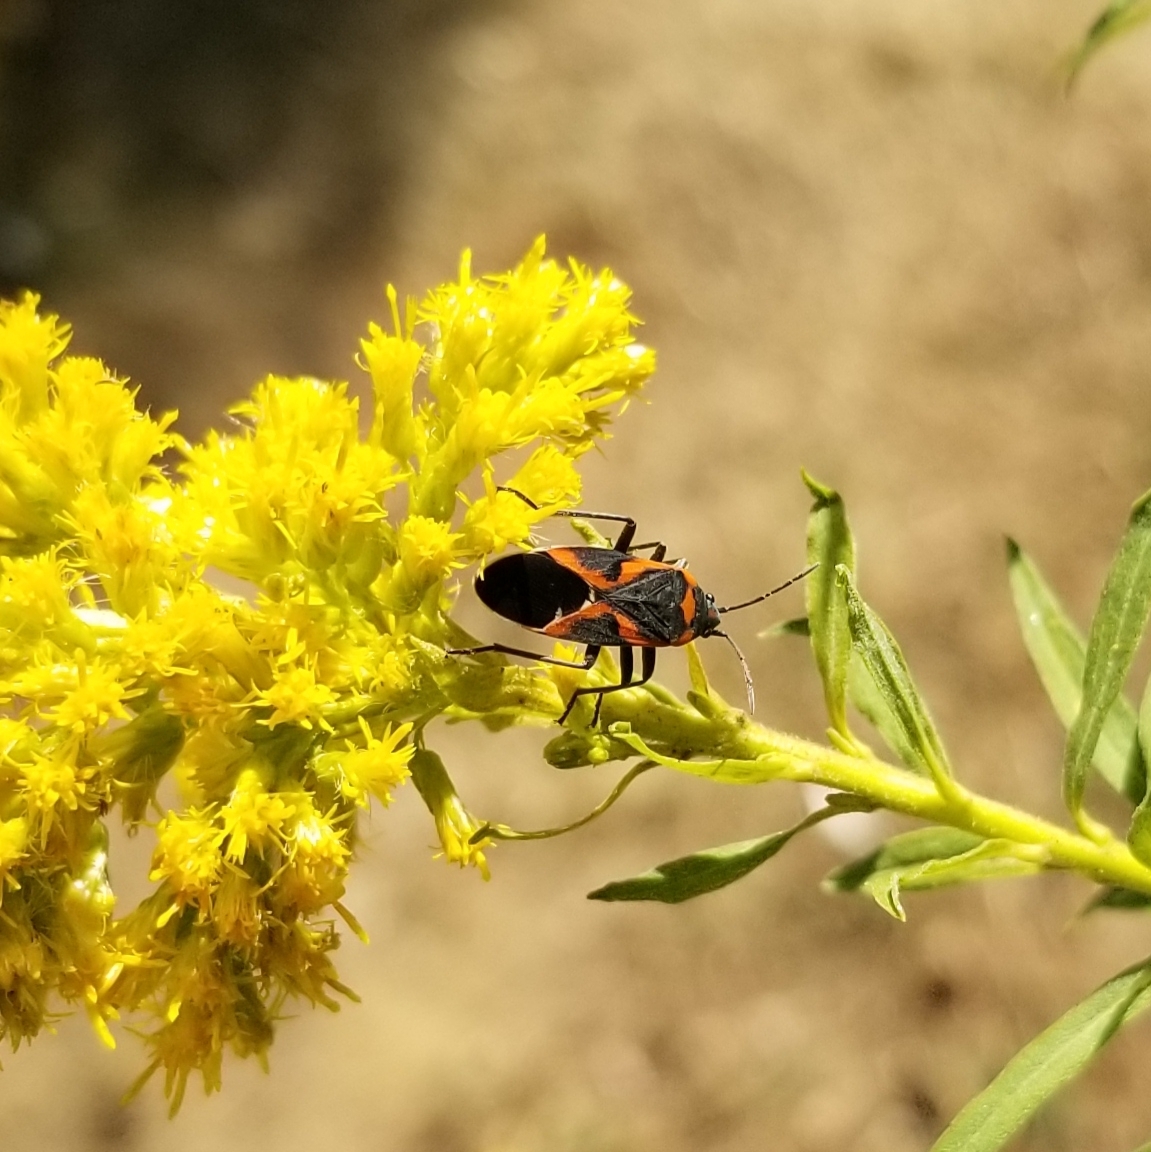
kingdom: Animalia
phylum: Arthropoda
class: Insecta
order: Hemiptera
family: Lygaeidae
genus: Lygaeus
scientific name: Lygaeus kalmii
